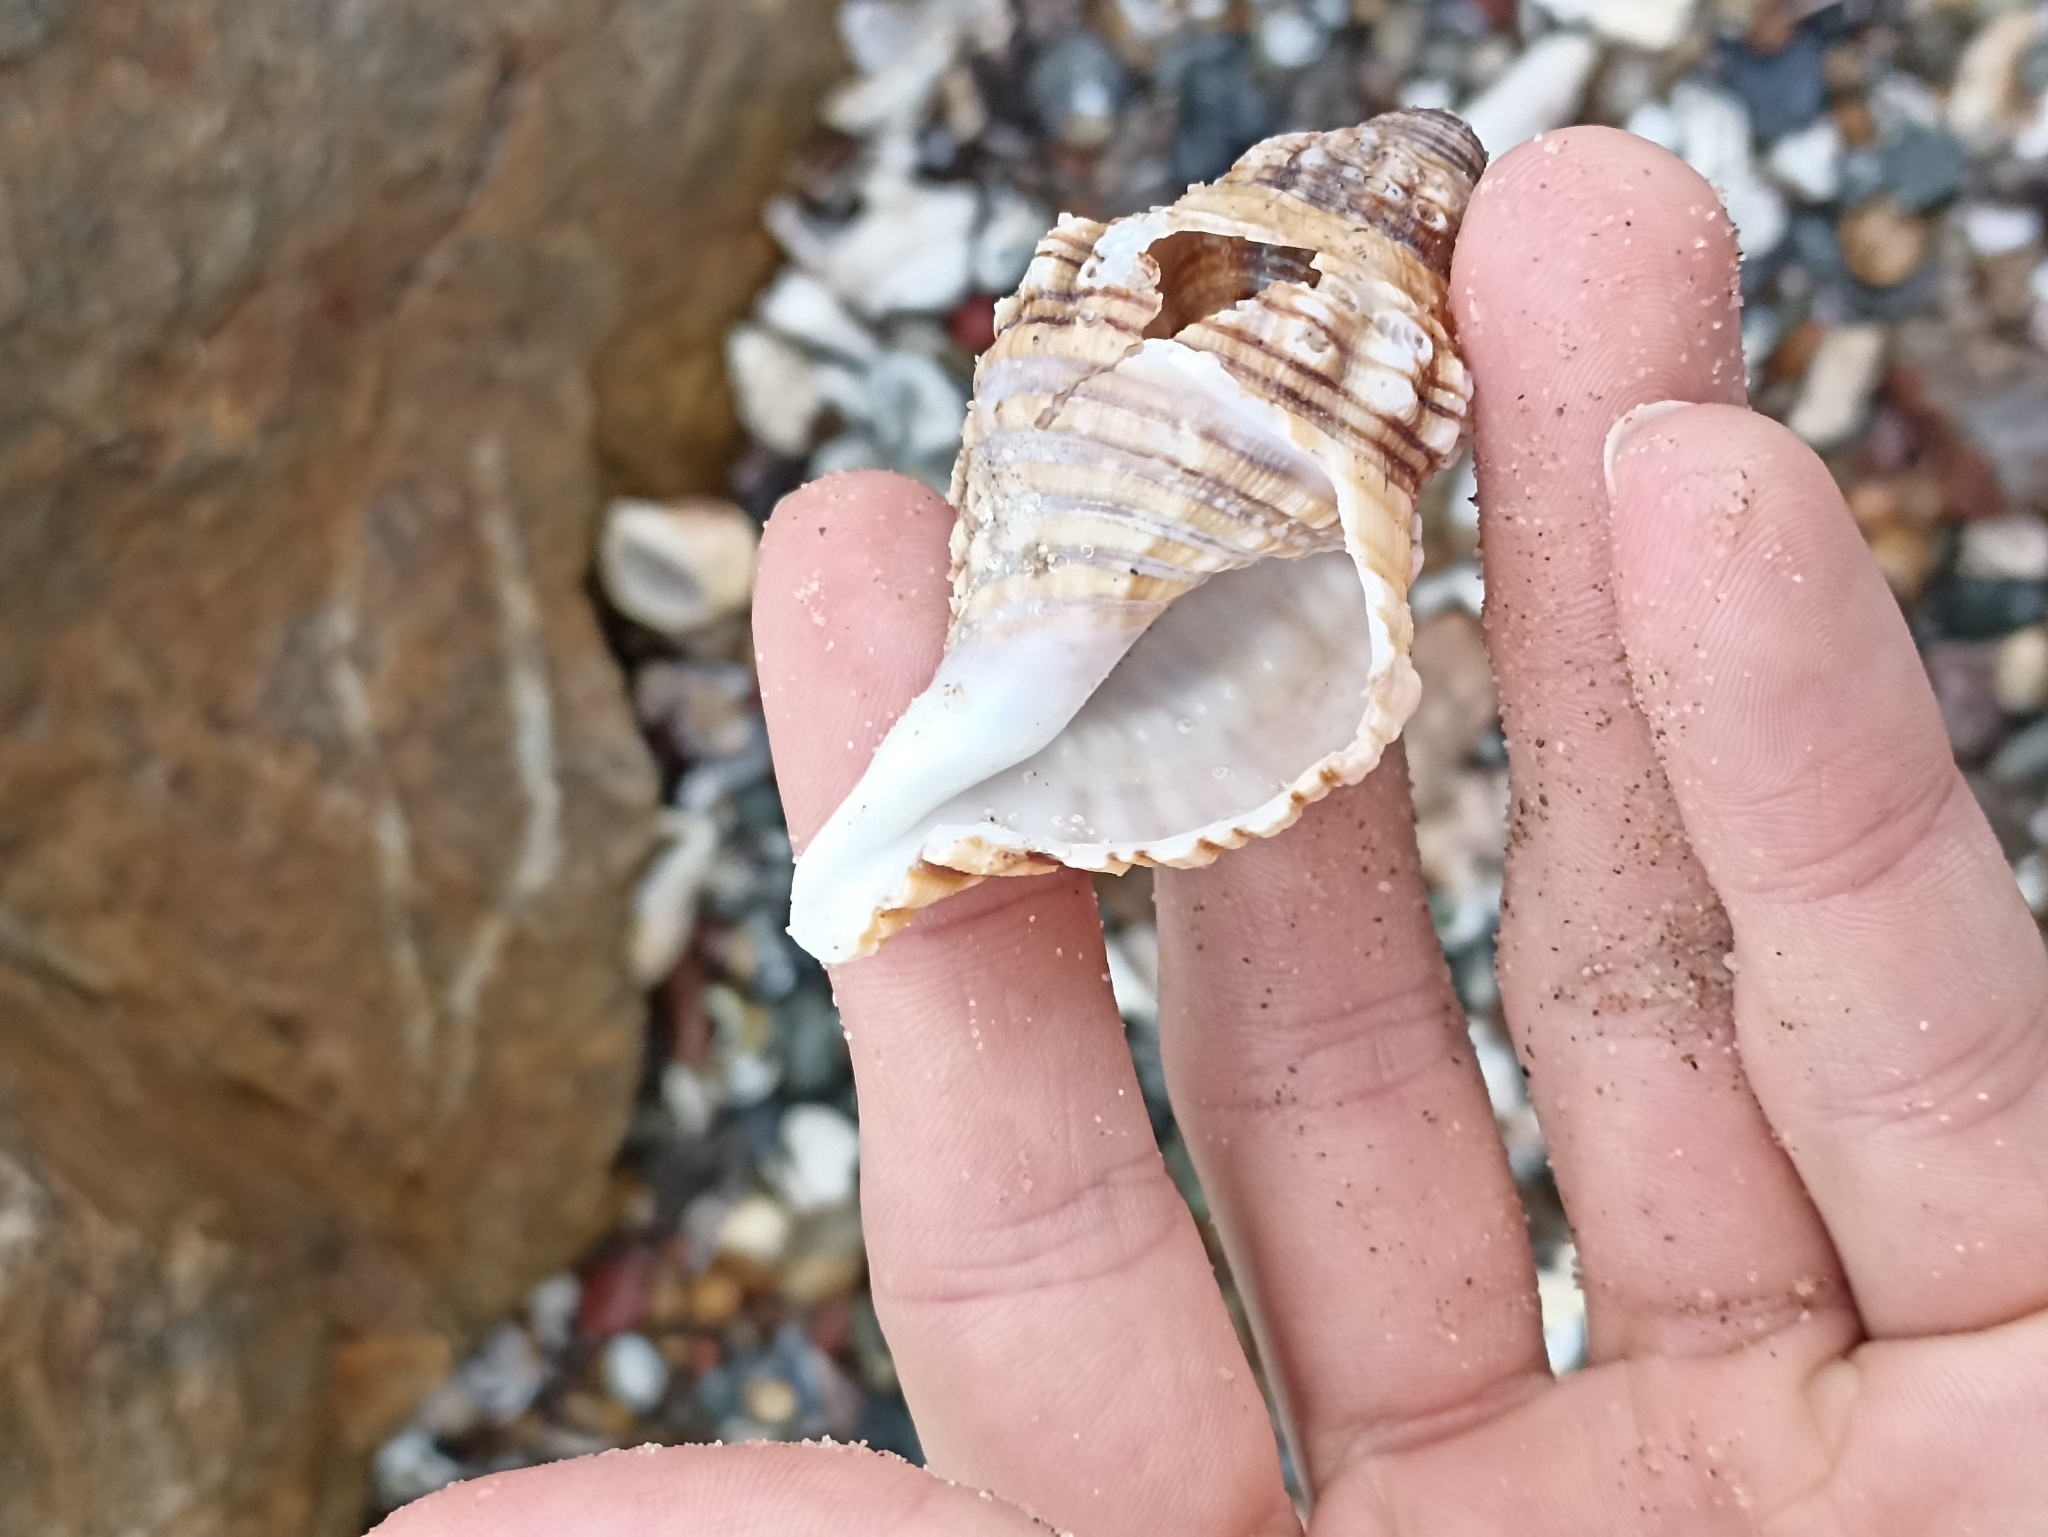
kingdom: Animalia
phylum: Mollusca
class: Gastropoda
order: Littorinimorpha
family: Cymatiidae
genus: Cabestana
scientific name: Cabestana spengleri
